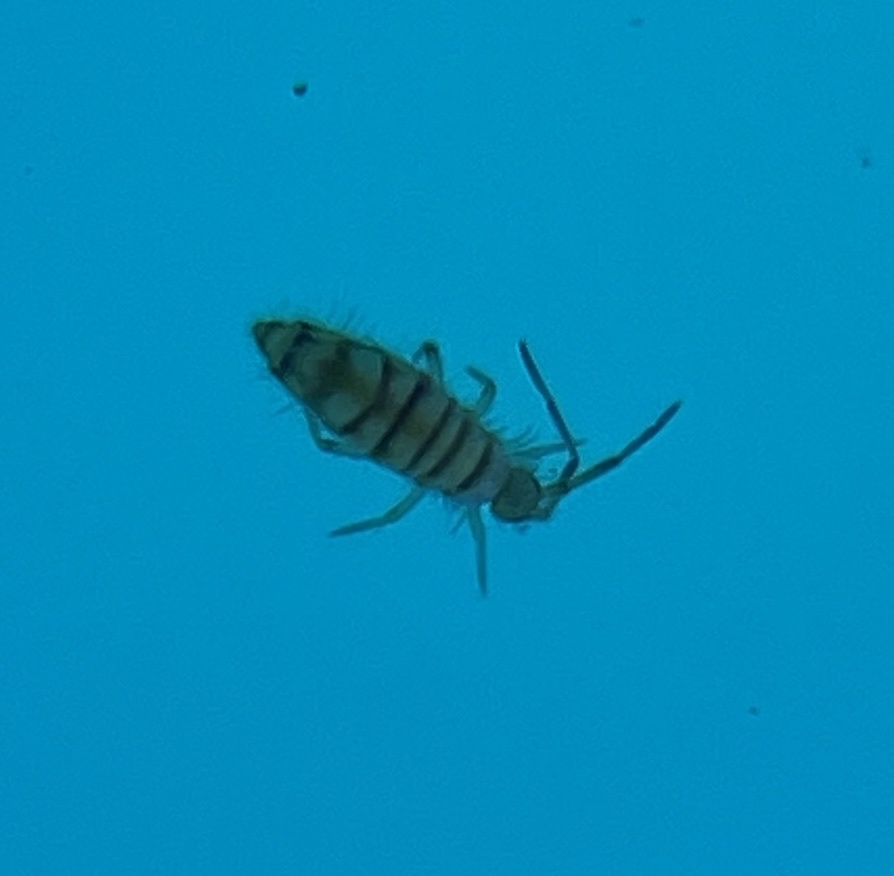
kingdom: Animalia
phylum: Arthropoda
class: Collembola
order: Entomobryomorpha
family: Entomobryidae
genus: Entomobrya
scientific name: Entomobrya atrocincta
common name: Springtail
